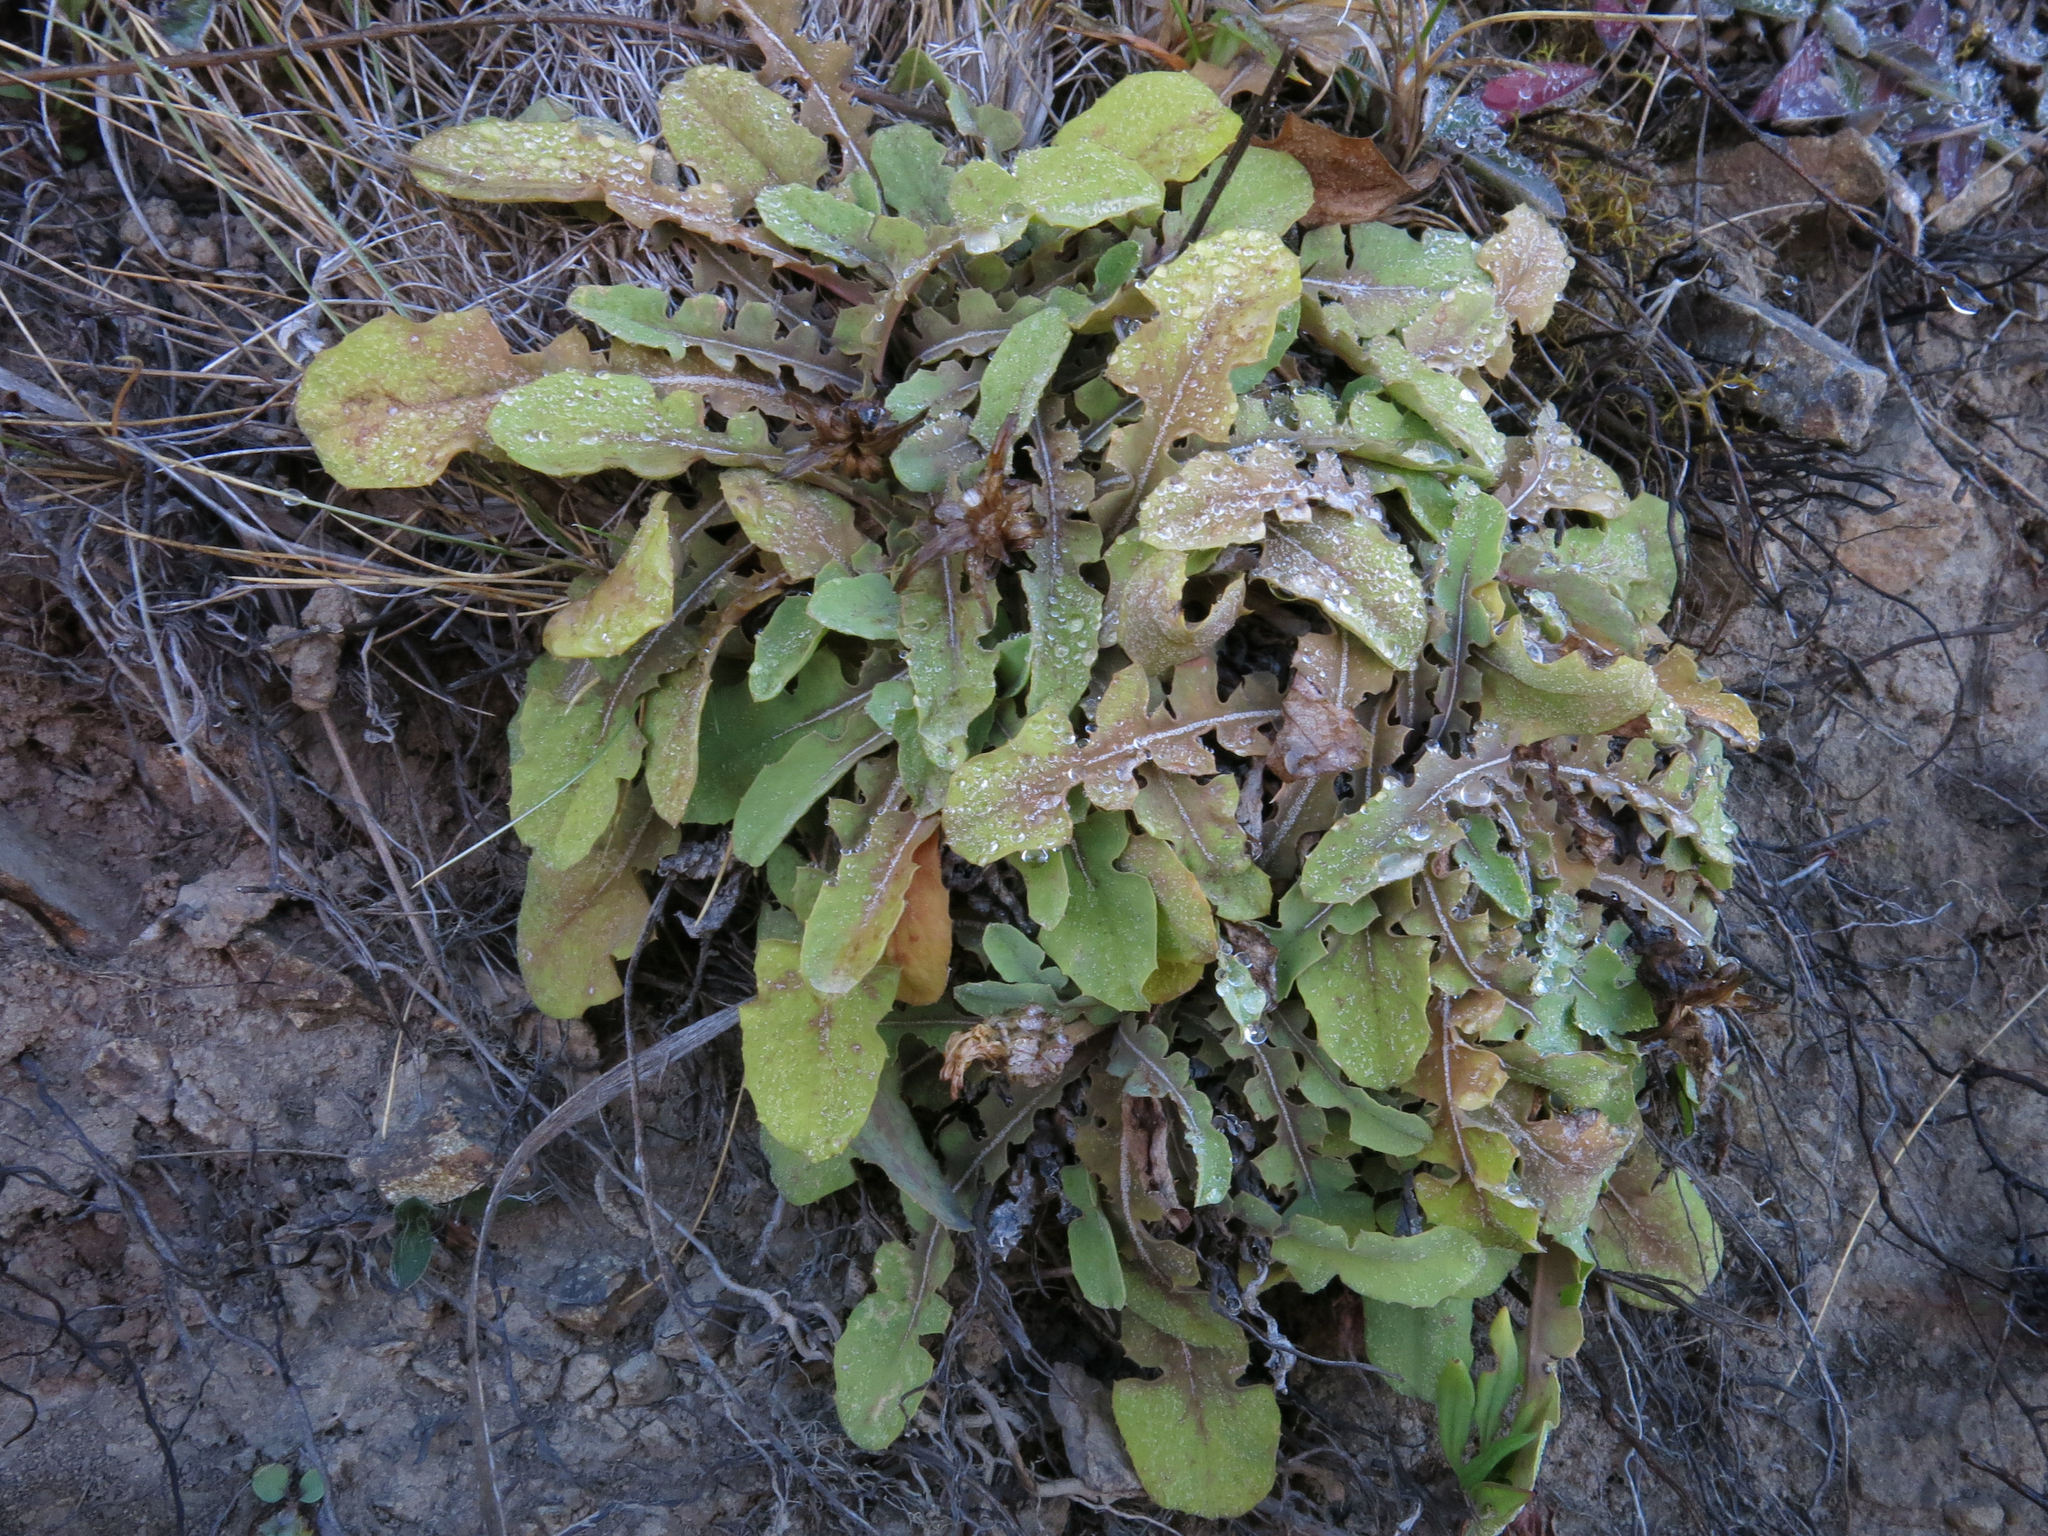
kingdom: Plantae
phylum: Tracheophyta
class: Magnoliopsida
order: Asterales
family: Asteraceae
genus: Sonchus
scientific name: Sonchus novae-zelandiae
